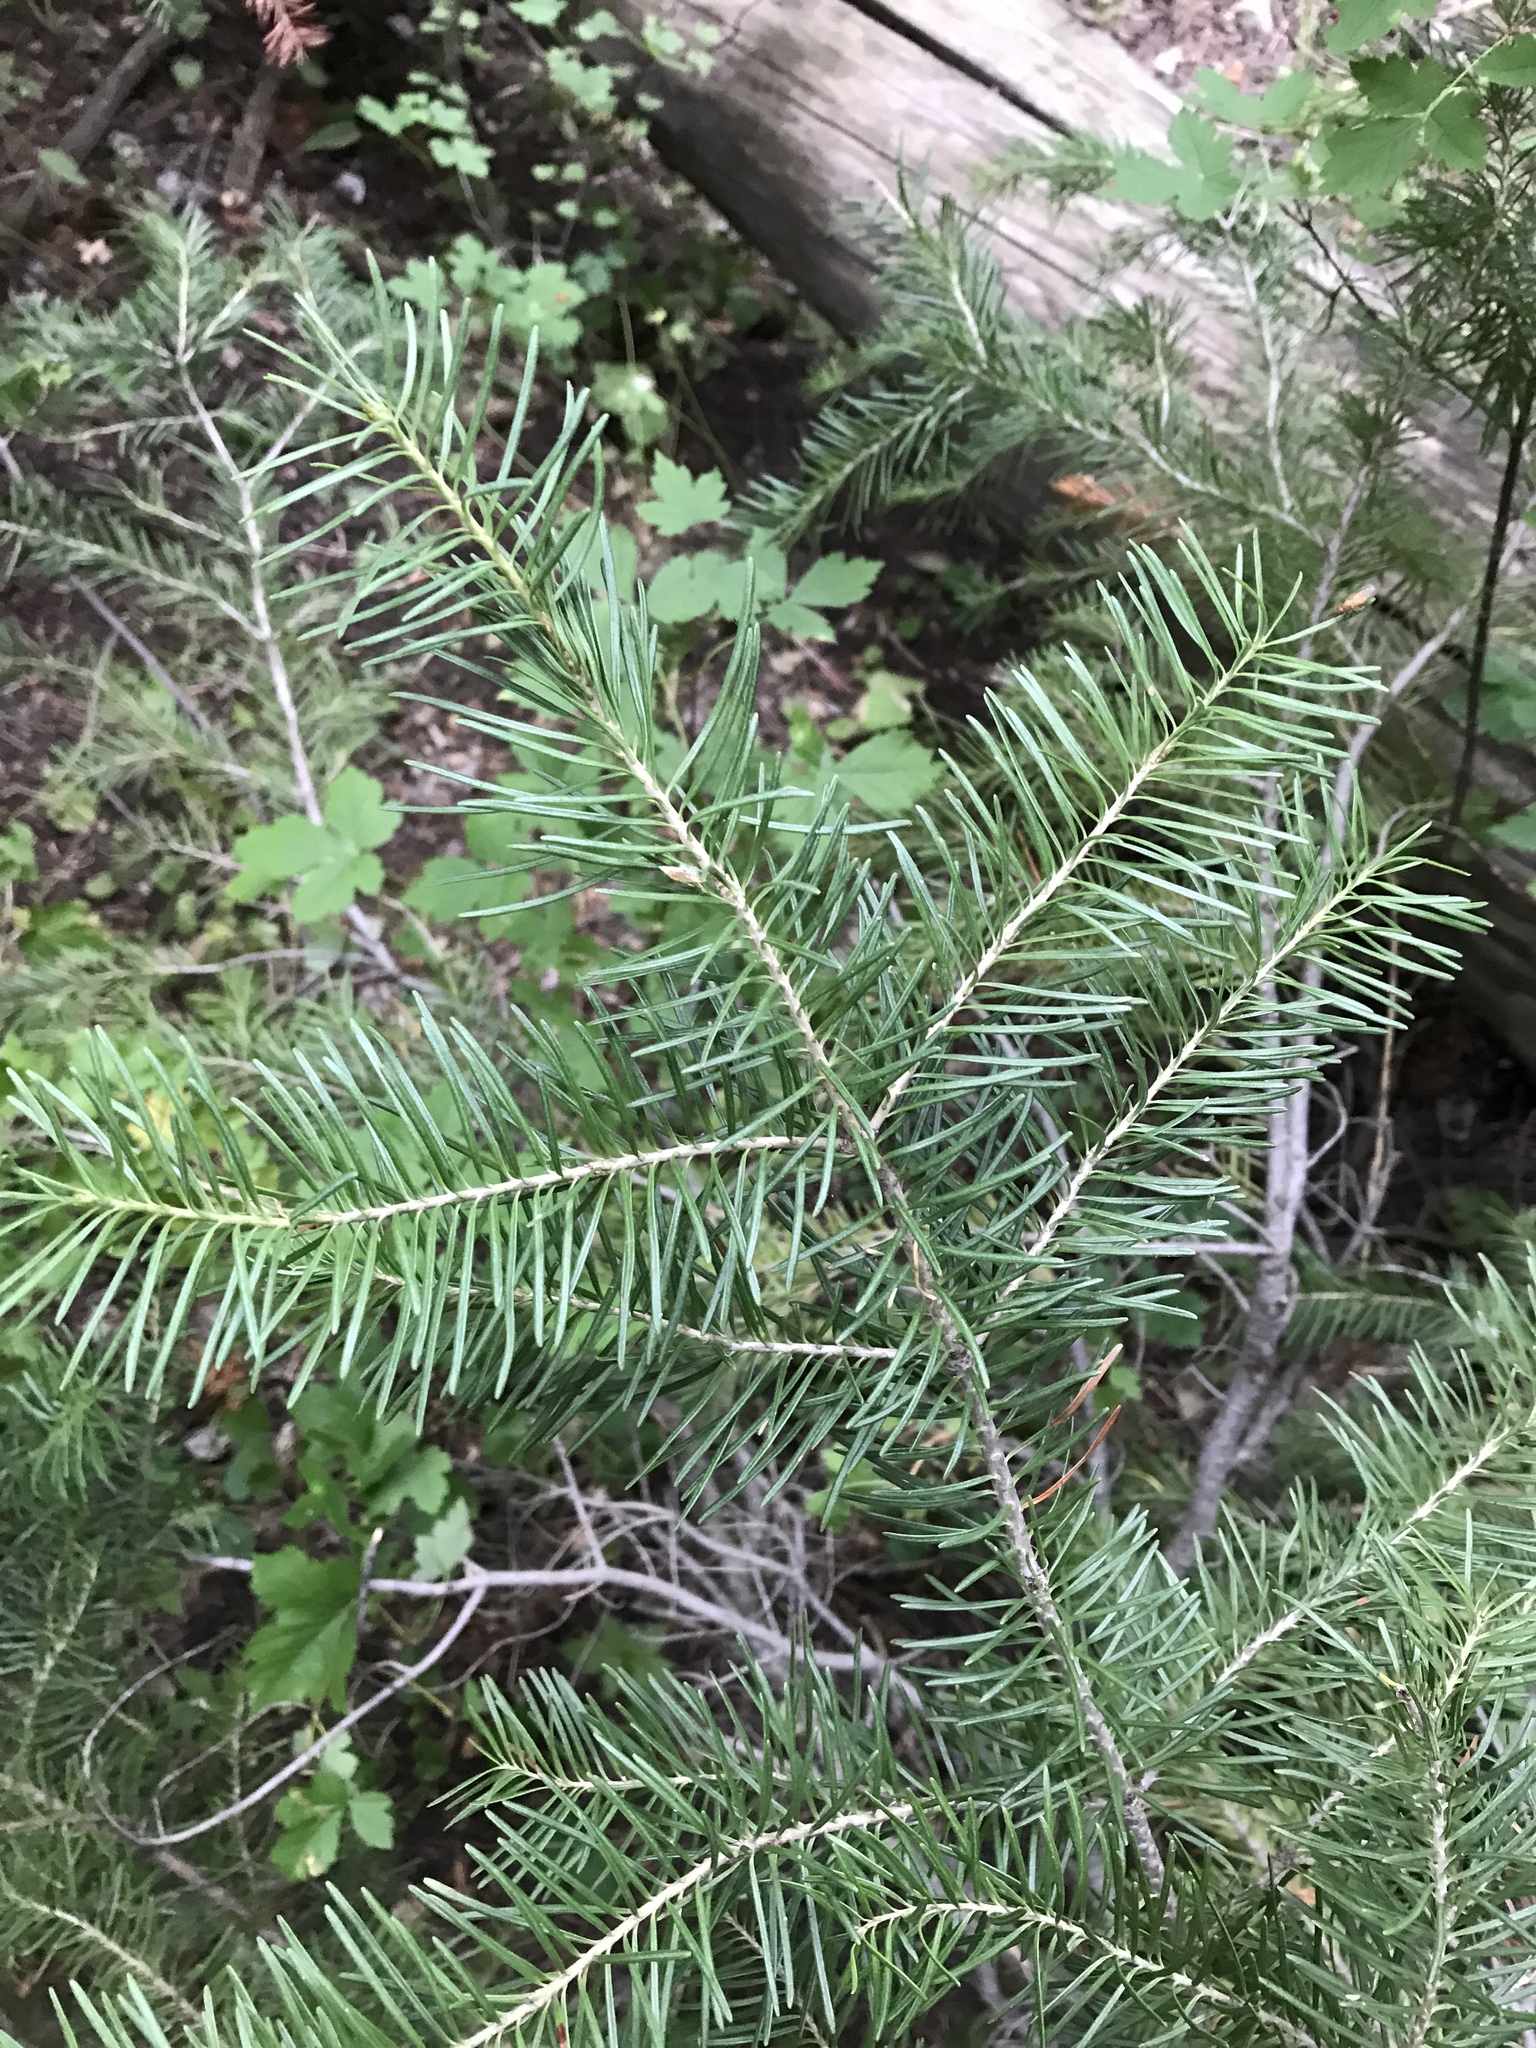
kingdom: Plantae
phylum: Tracheophyta
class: Pinopsida
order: Pinales
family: Pinaceae
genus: Pseudotsuga
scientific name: Pseudotsuga menziesii
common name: Douglas fir
